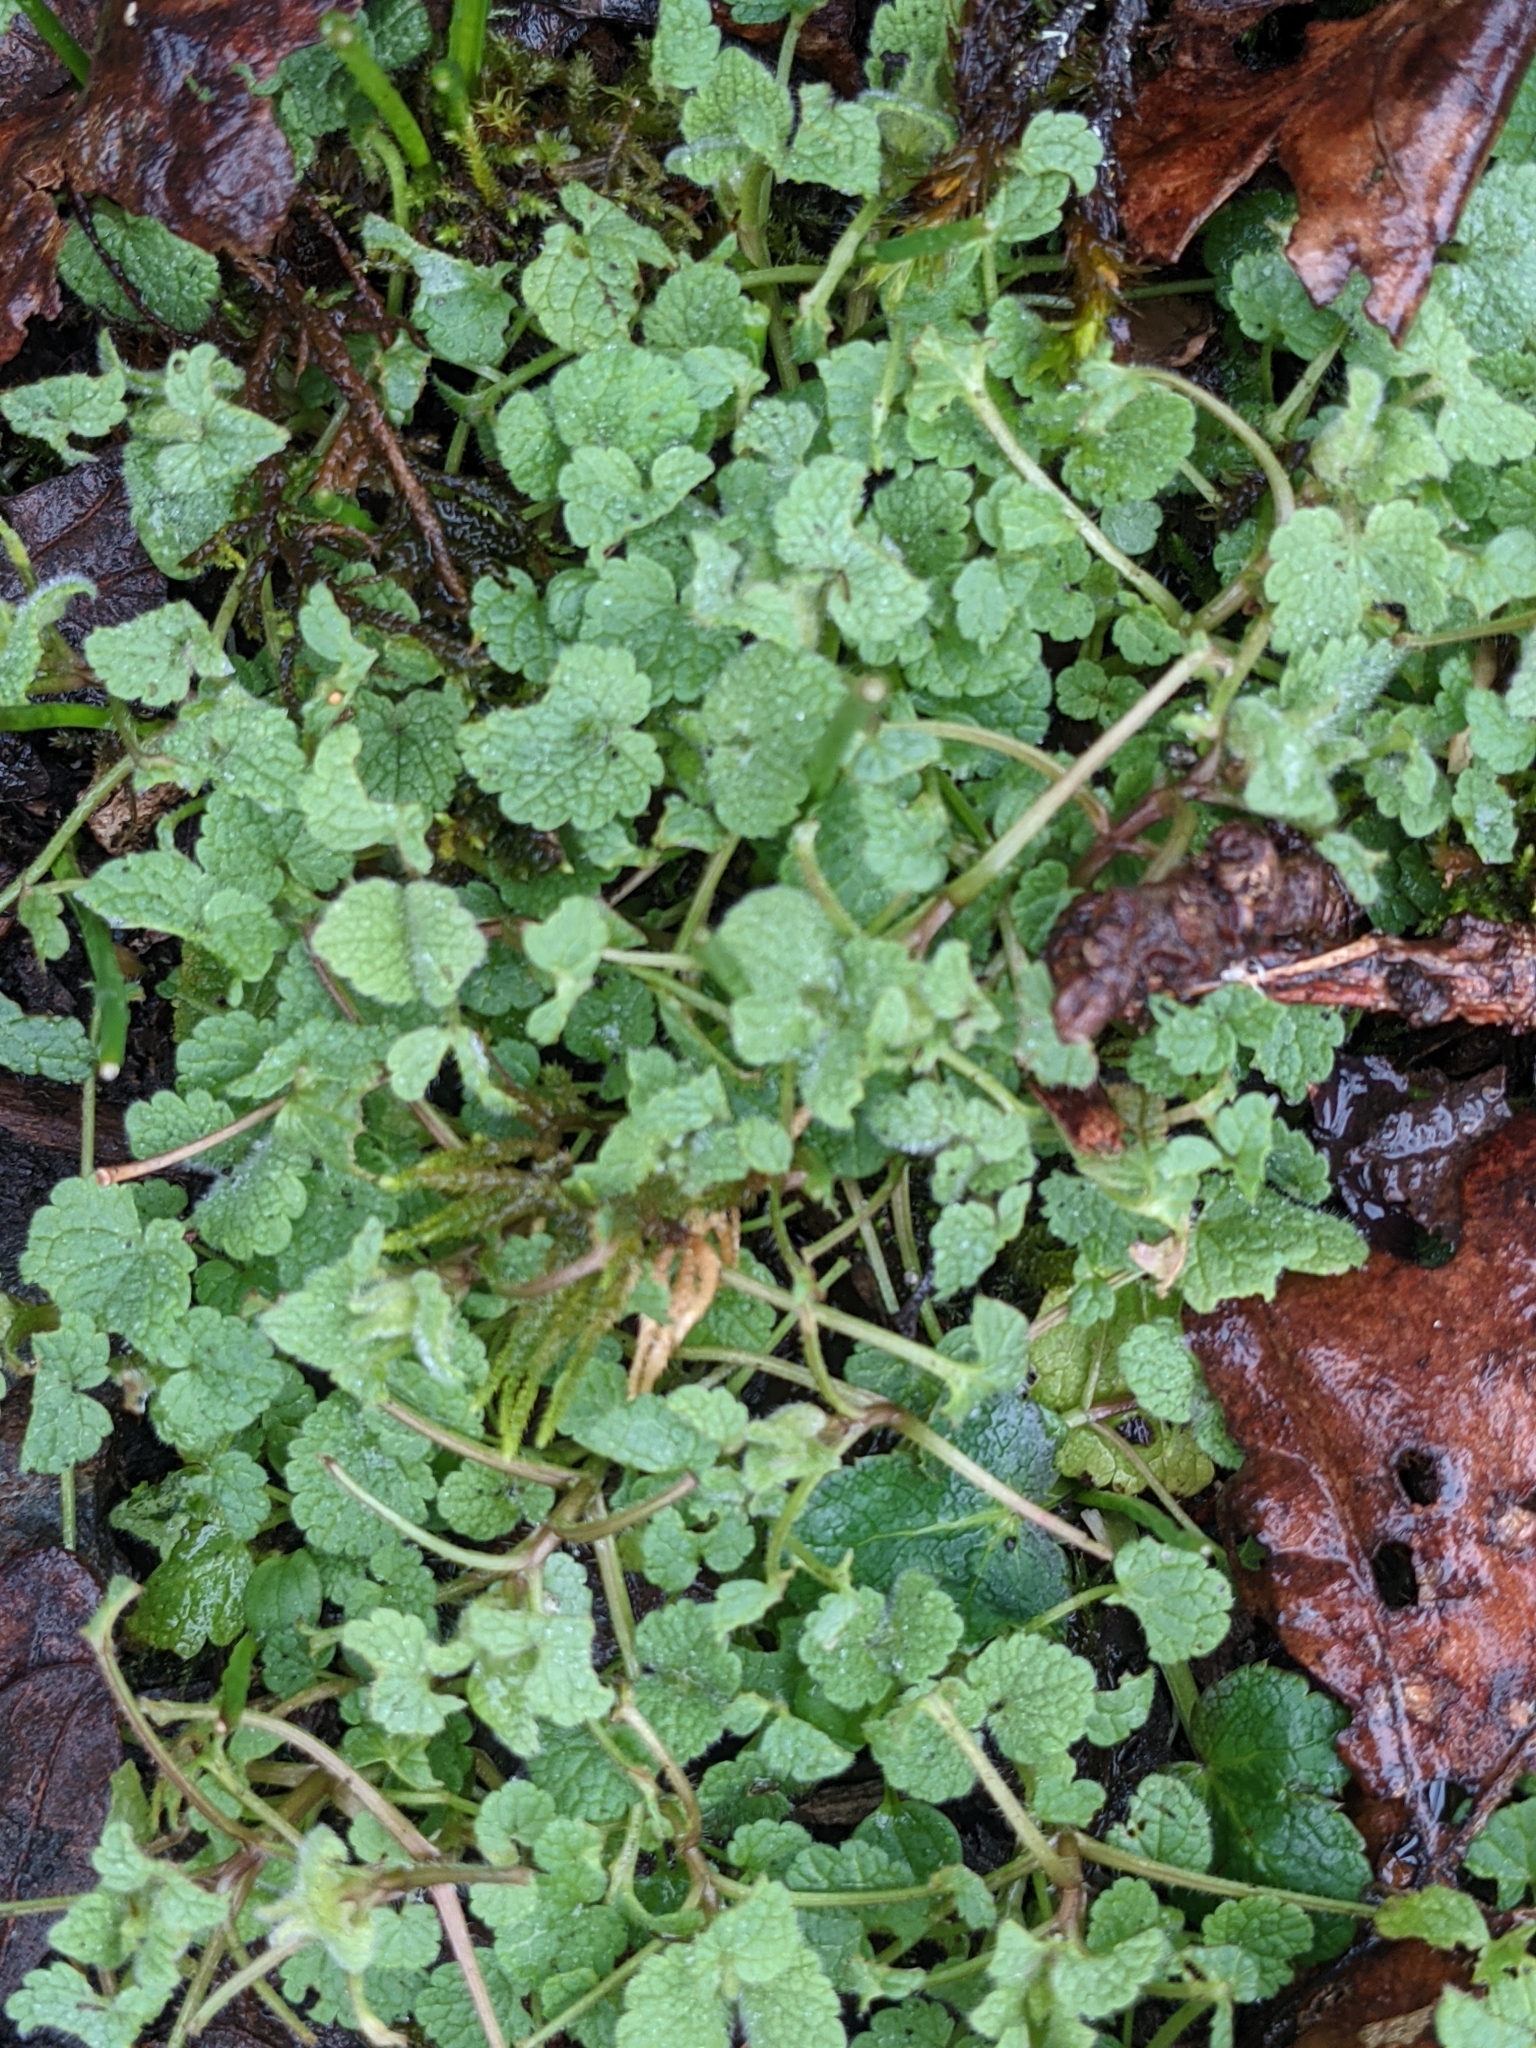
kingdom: Plantae
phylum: Tracheophyta
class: Magnoliopsida
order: Lamiales
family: Lamiaceae
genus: Lamium
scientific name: Lamium purpureum
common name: Red dead-nettle
